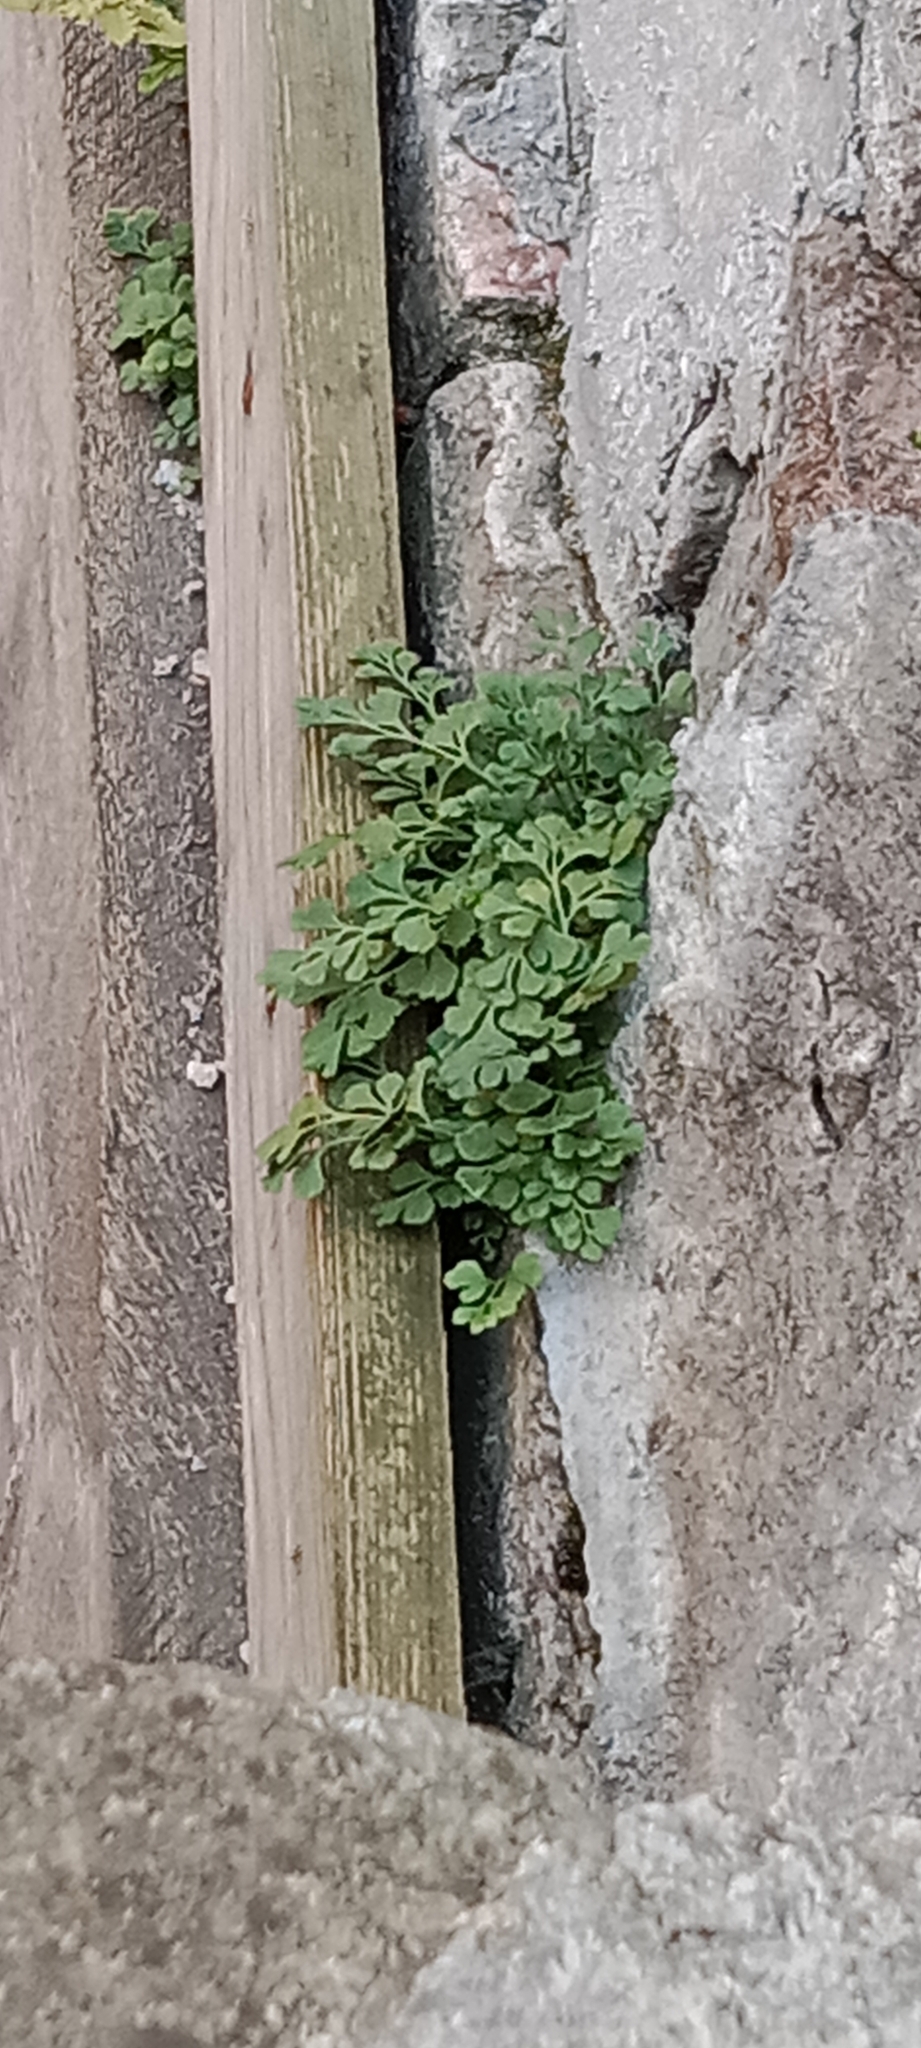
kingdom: Plantae
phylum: Tracheophyta
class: Polypodiopsida
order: Polypodiales
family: Aspleniaceae
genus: Asplenium
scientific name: Asplenium ruta-muraria
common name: Wall-rue
